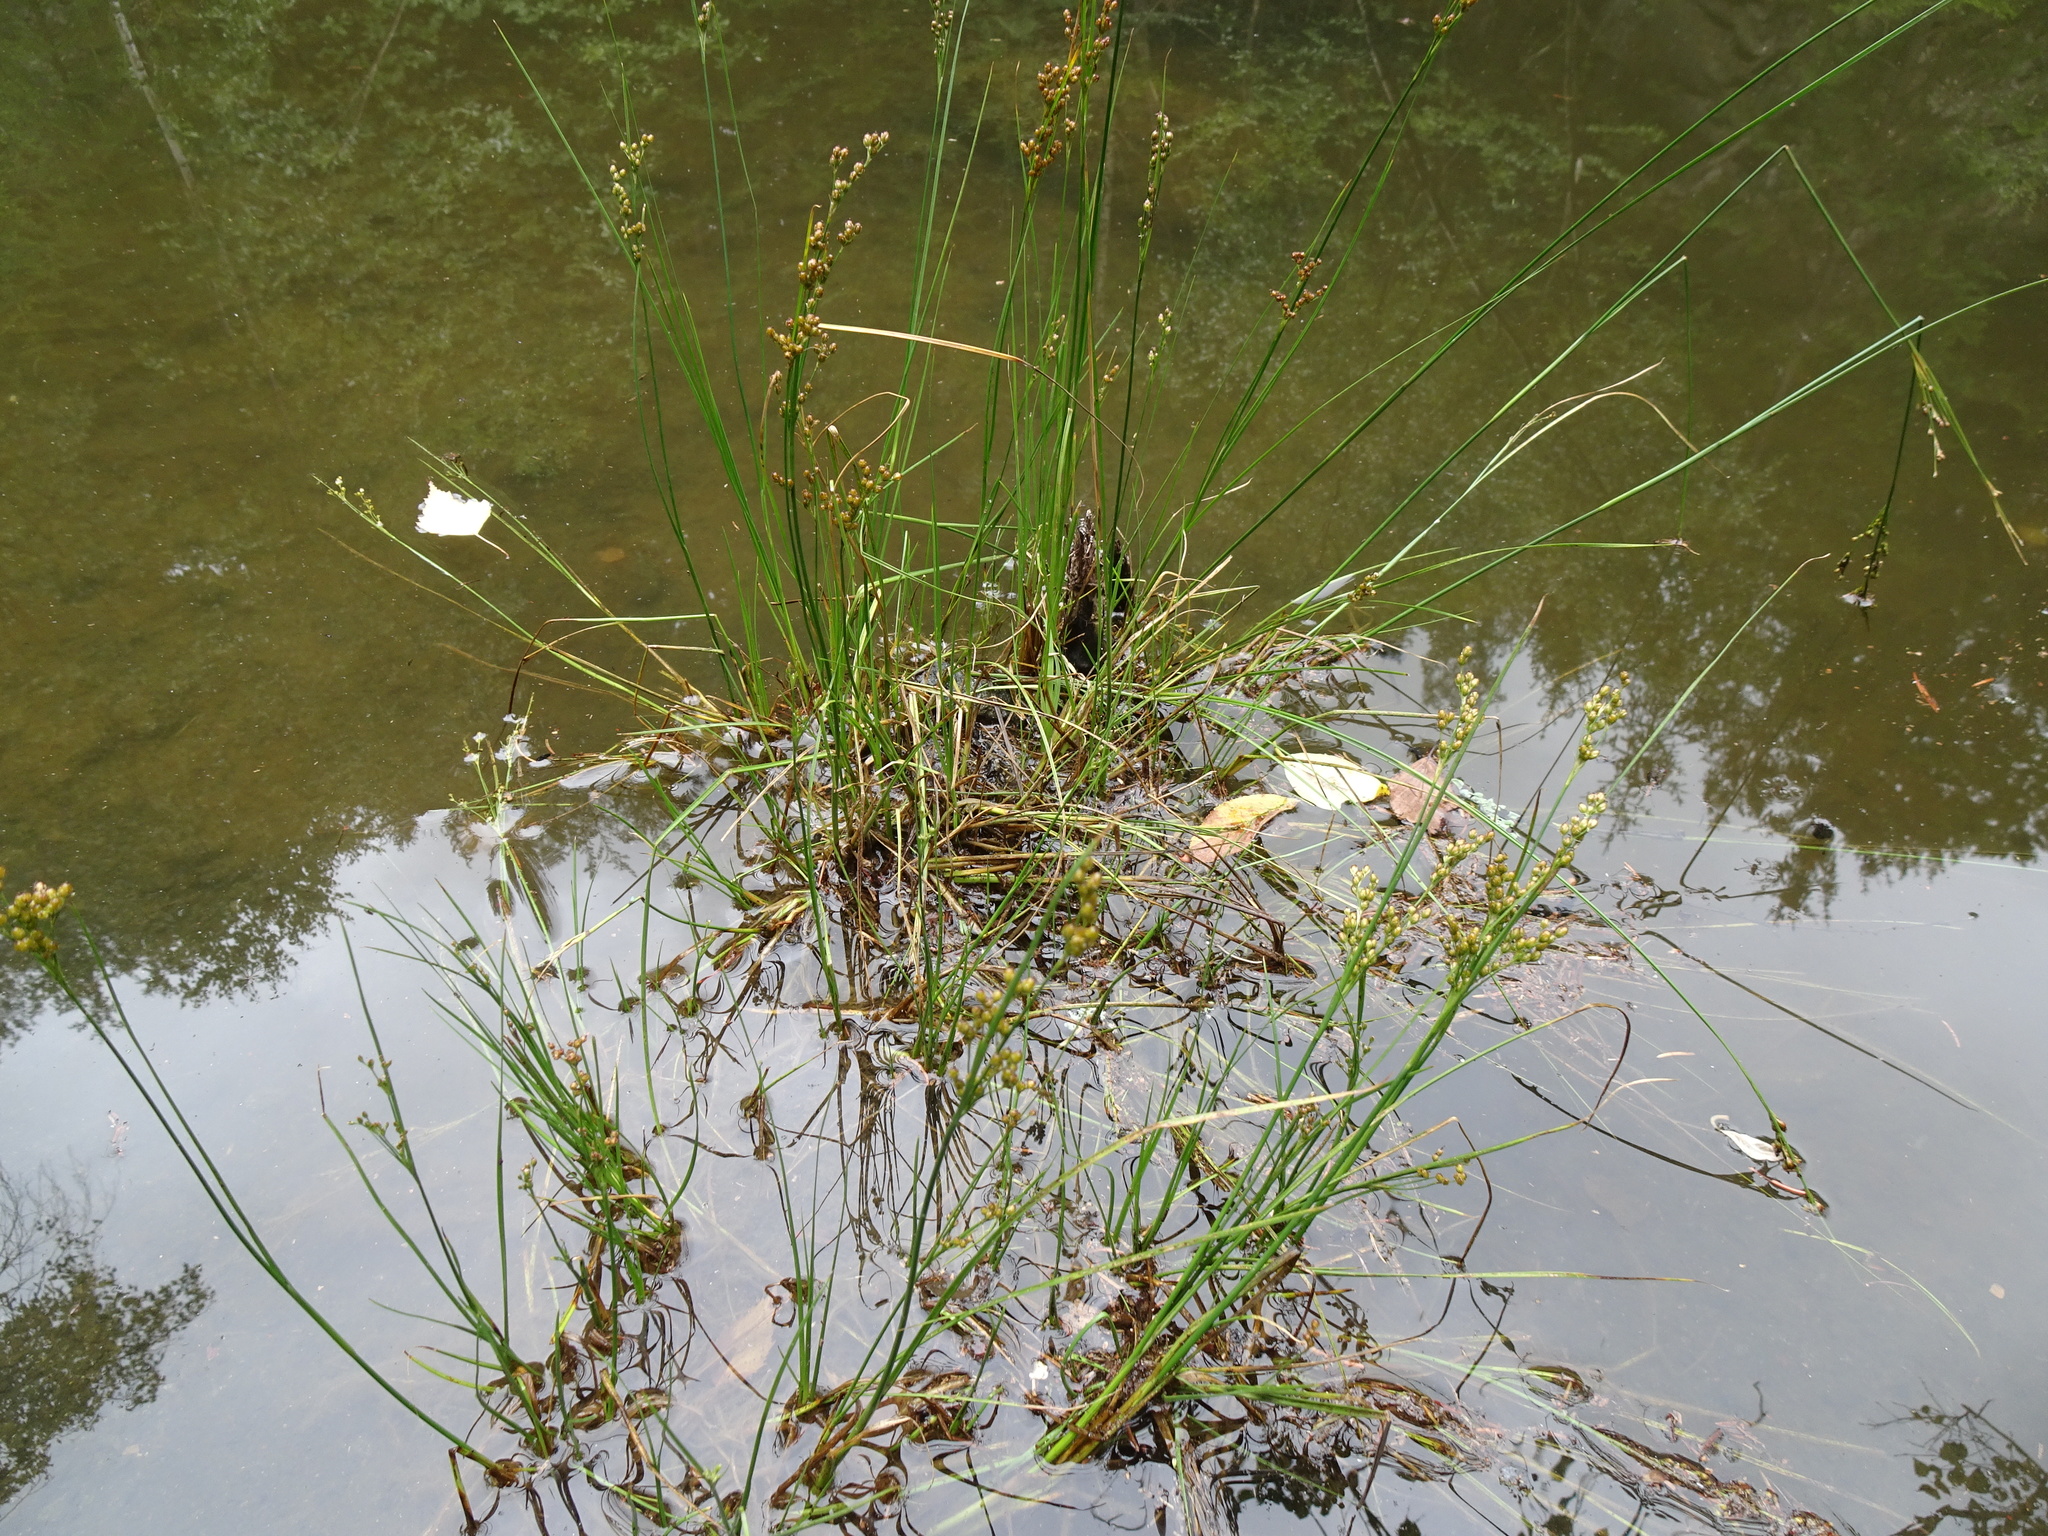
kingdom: Plantae
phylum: Tracheophyta
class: Liliopsida
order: Poales
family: Juncaceae
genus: Juncus
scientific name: Juncus compressus
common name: Round-fruited rush
